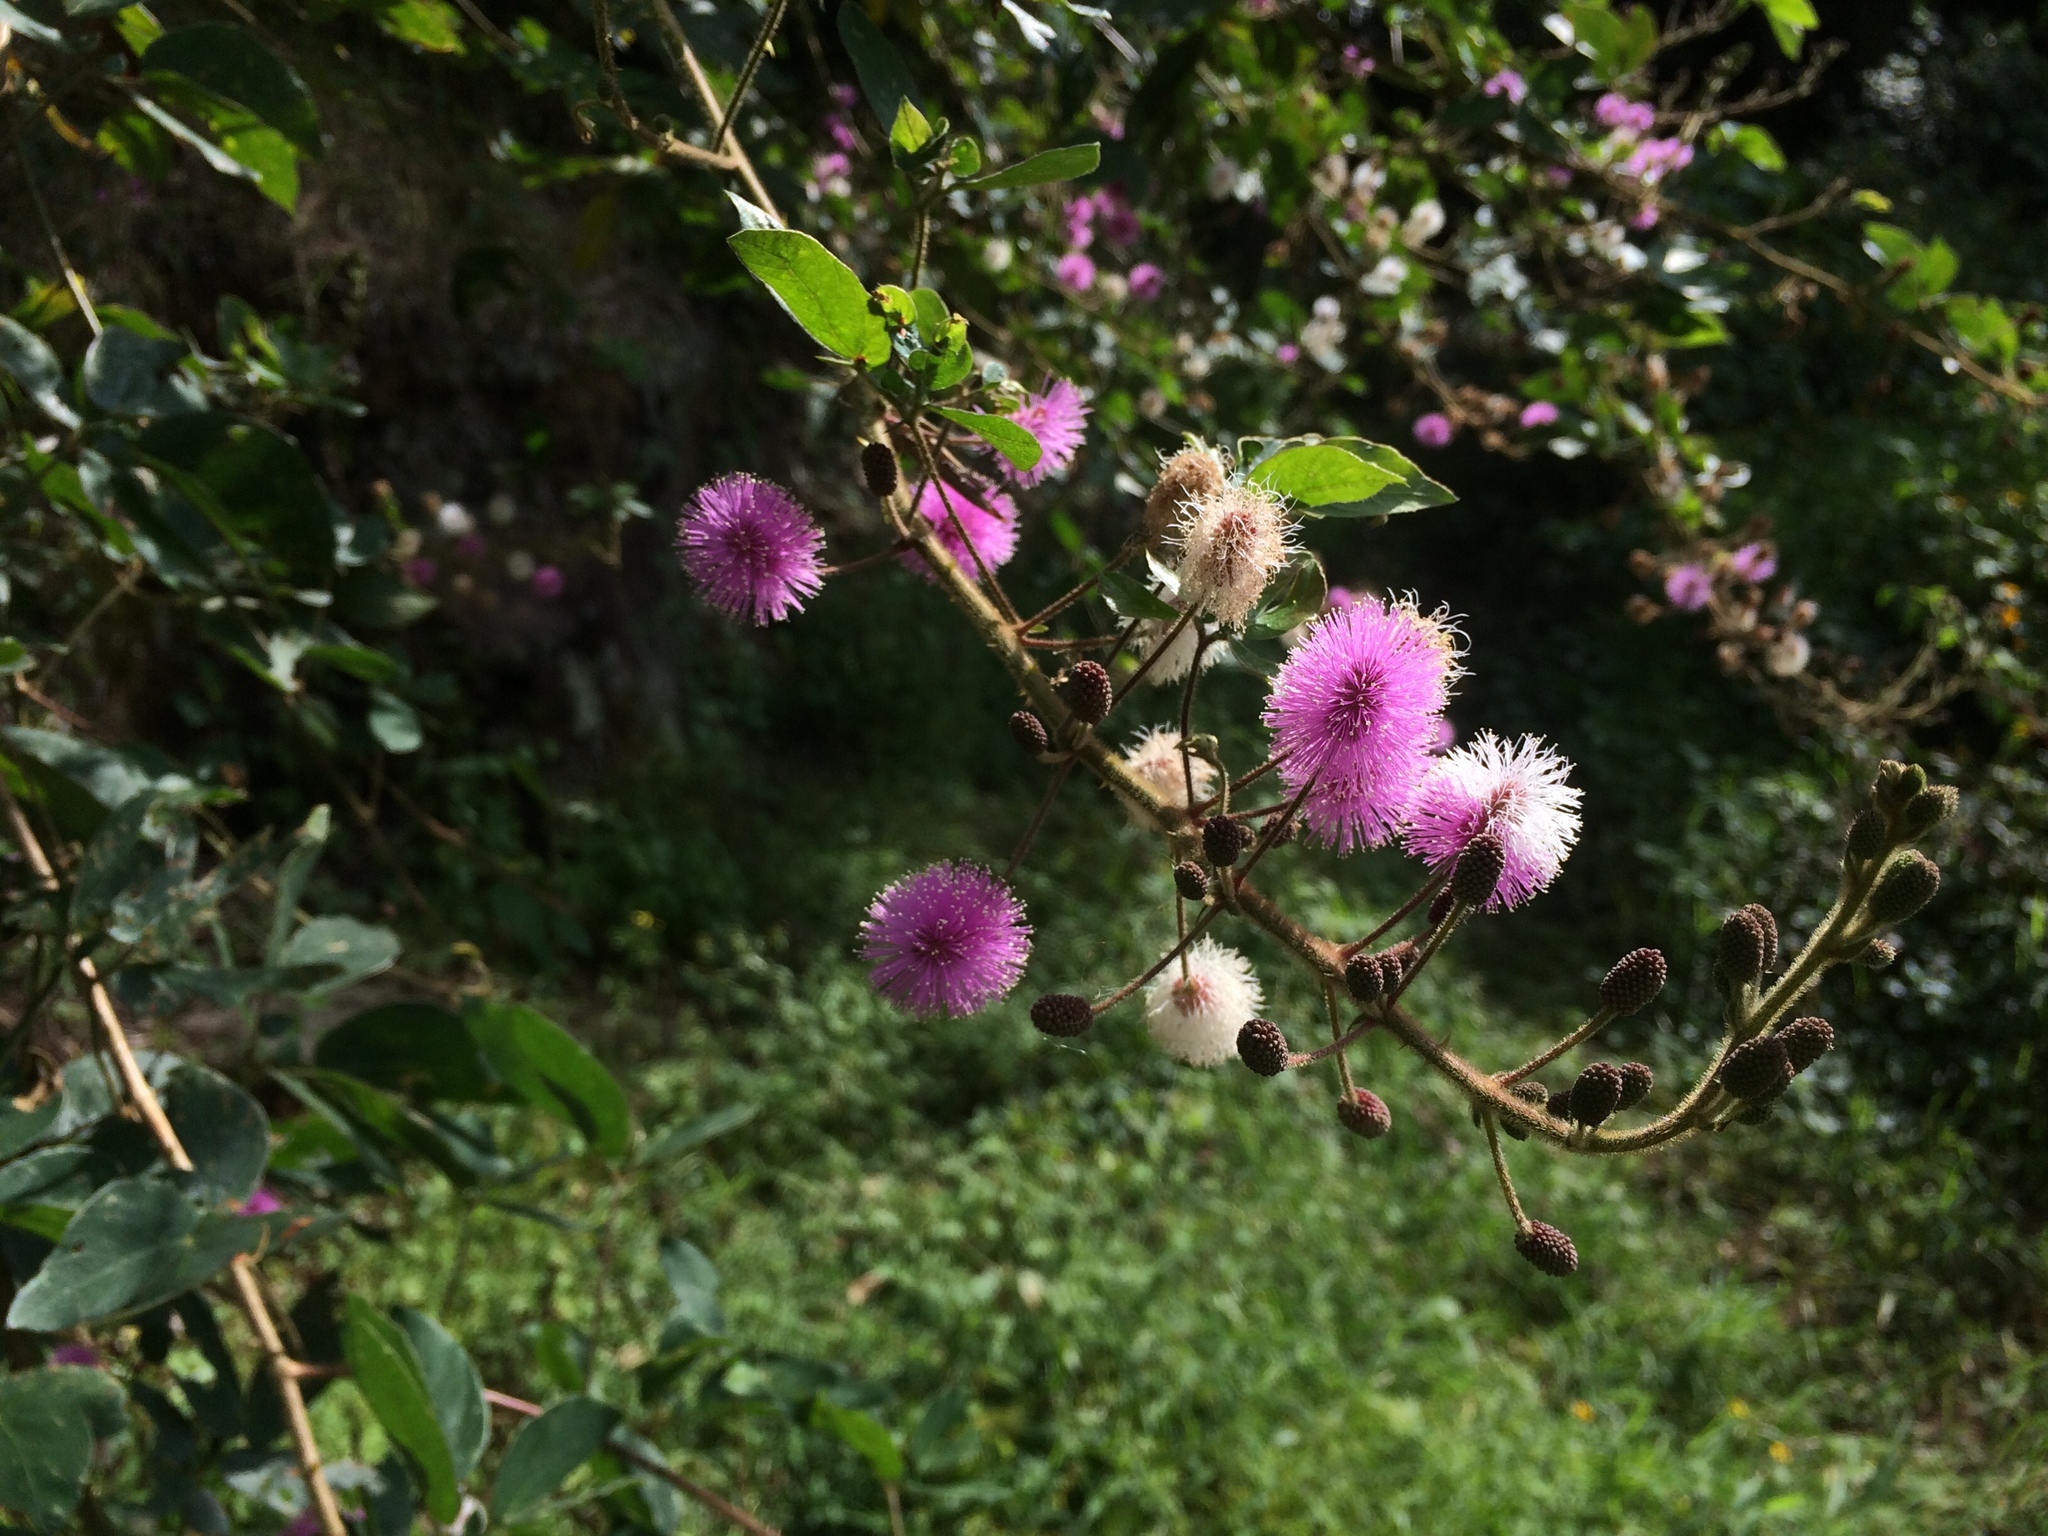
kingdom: Plantae
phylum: Tracheophyta
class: Magnoliopsida
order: Fabales
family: Fabaceae
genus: Mimosa
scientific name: Mimosa albida
